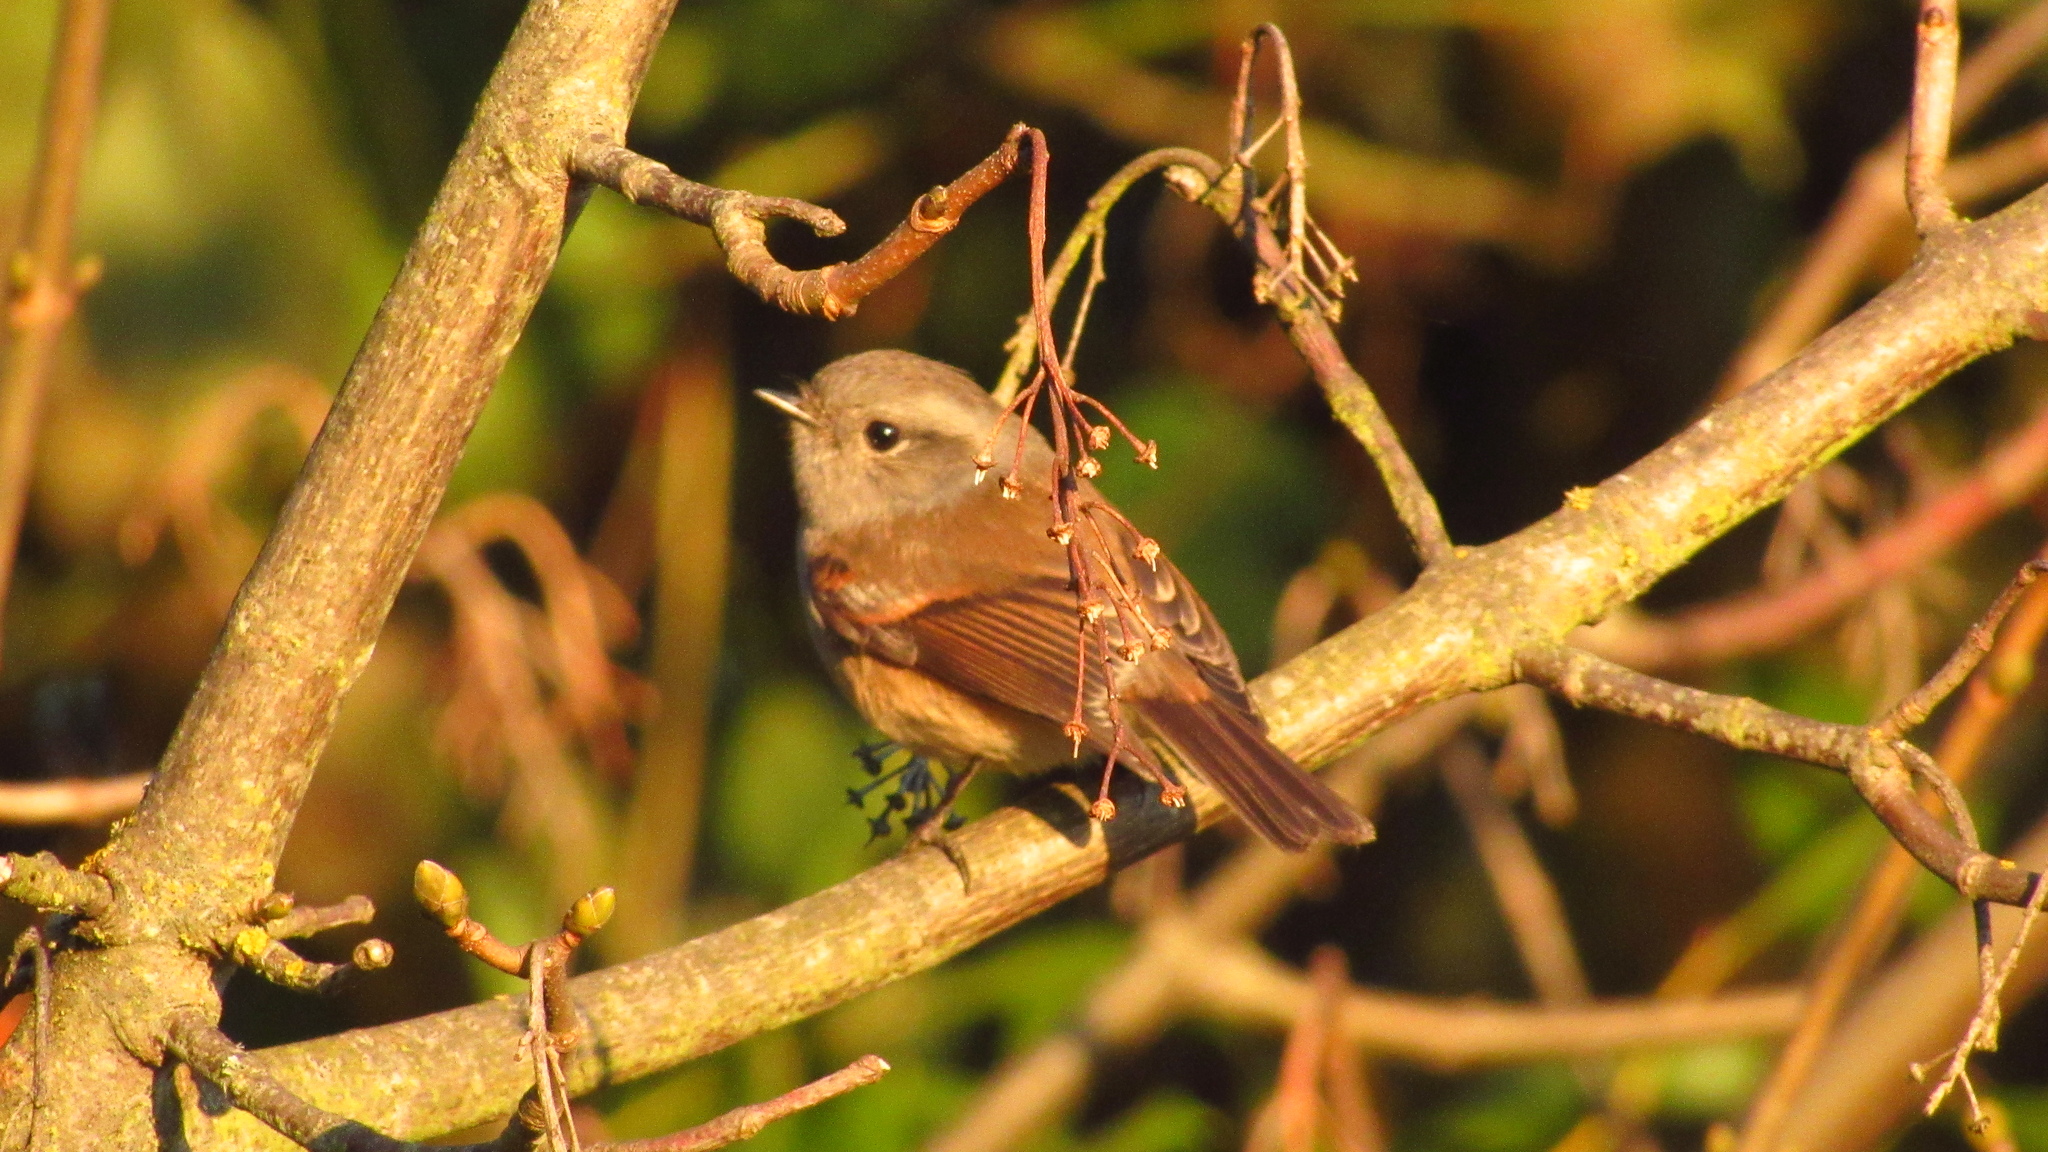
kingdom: Animalia
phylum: Chordata
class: Aves
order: Passeriformes
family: Tyrannidae
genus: Colorhamphus
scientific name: Colorhamphus parvirostris
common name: Patagonian tyrant
